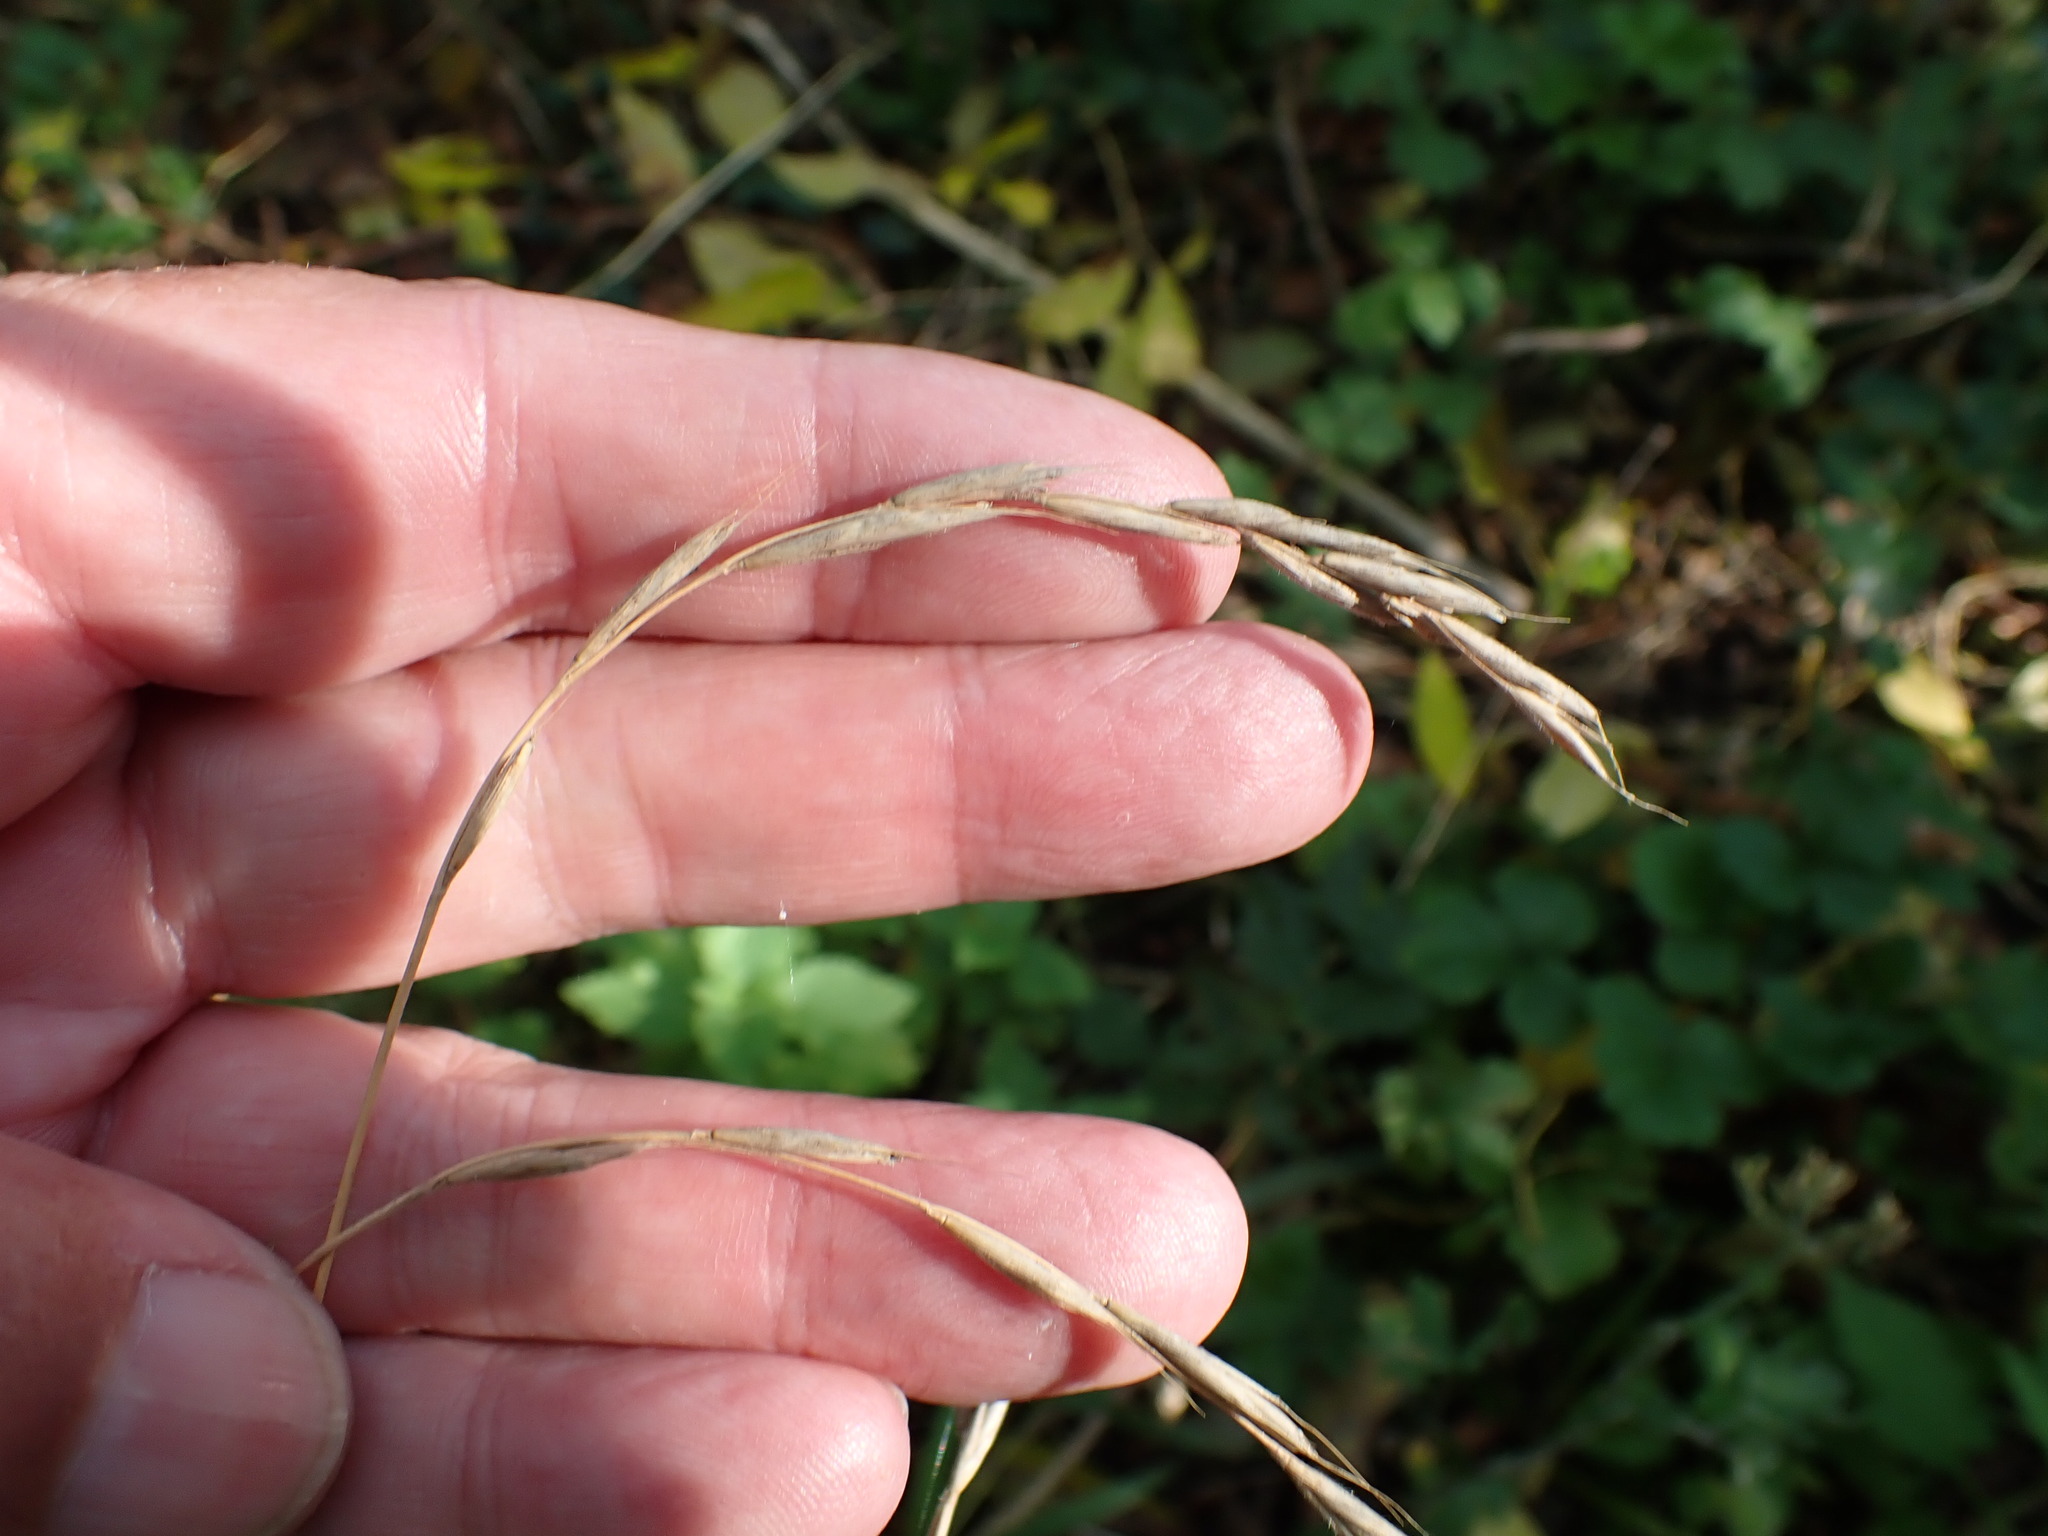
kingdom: Plantae
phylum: Tracheophyta
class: Liliopsida
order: Poales
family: Poaceae
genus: Brachypodium
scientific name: Brachypodium sylvaticum
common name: False-brome
